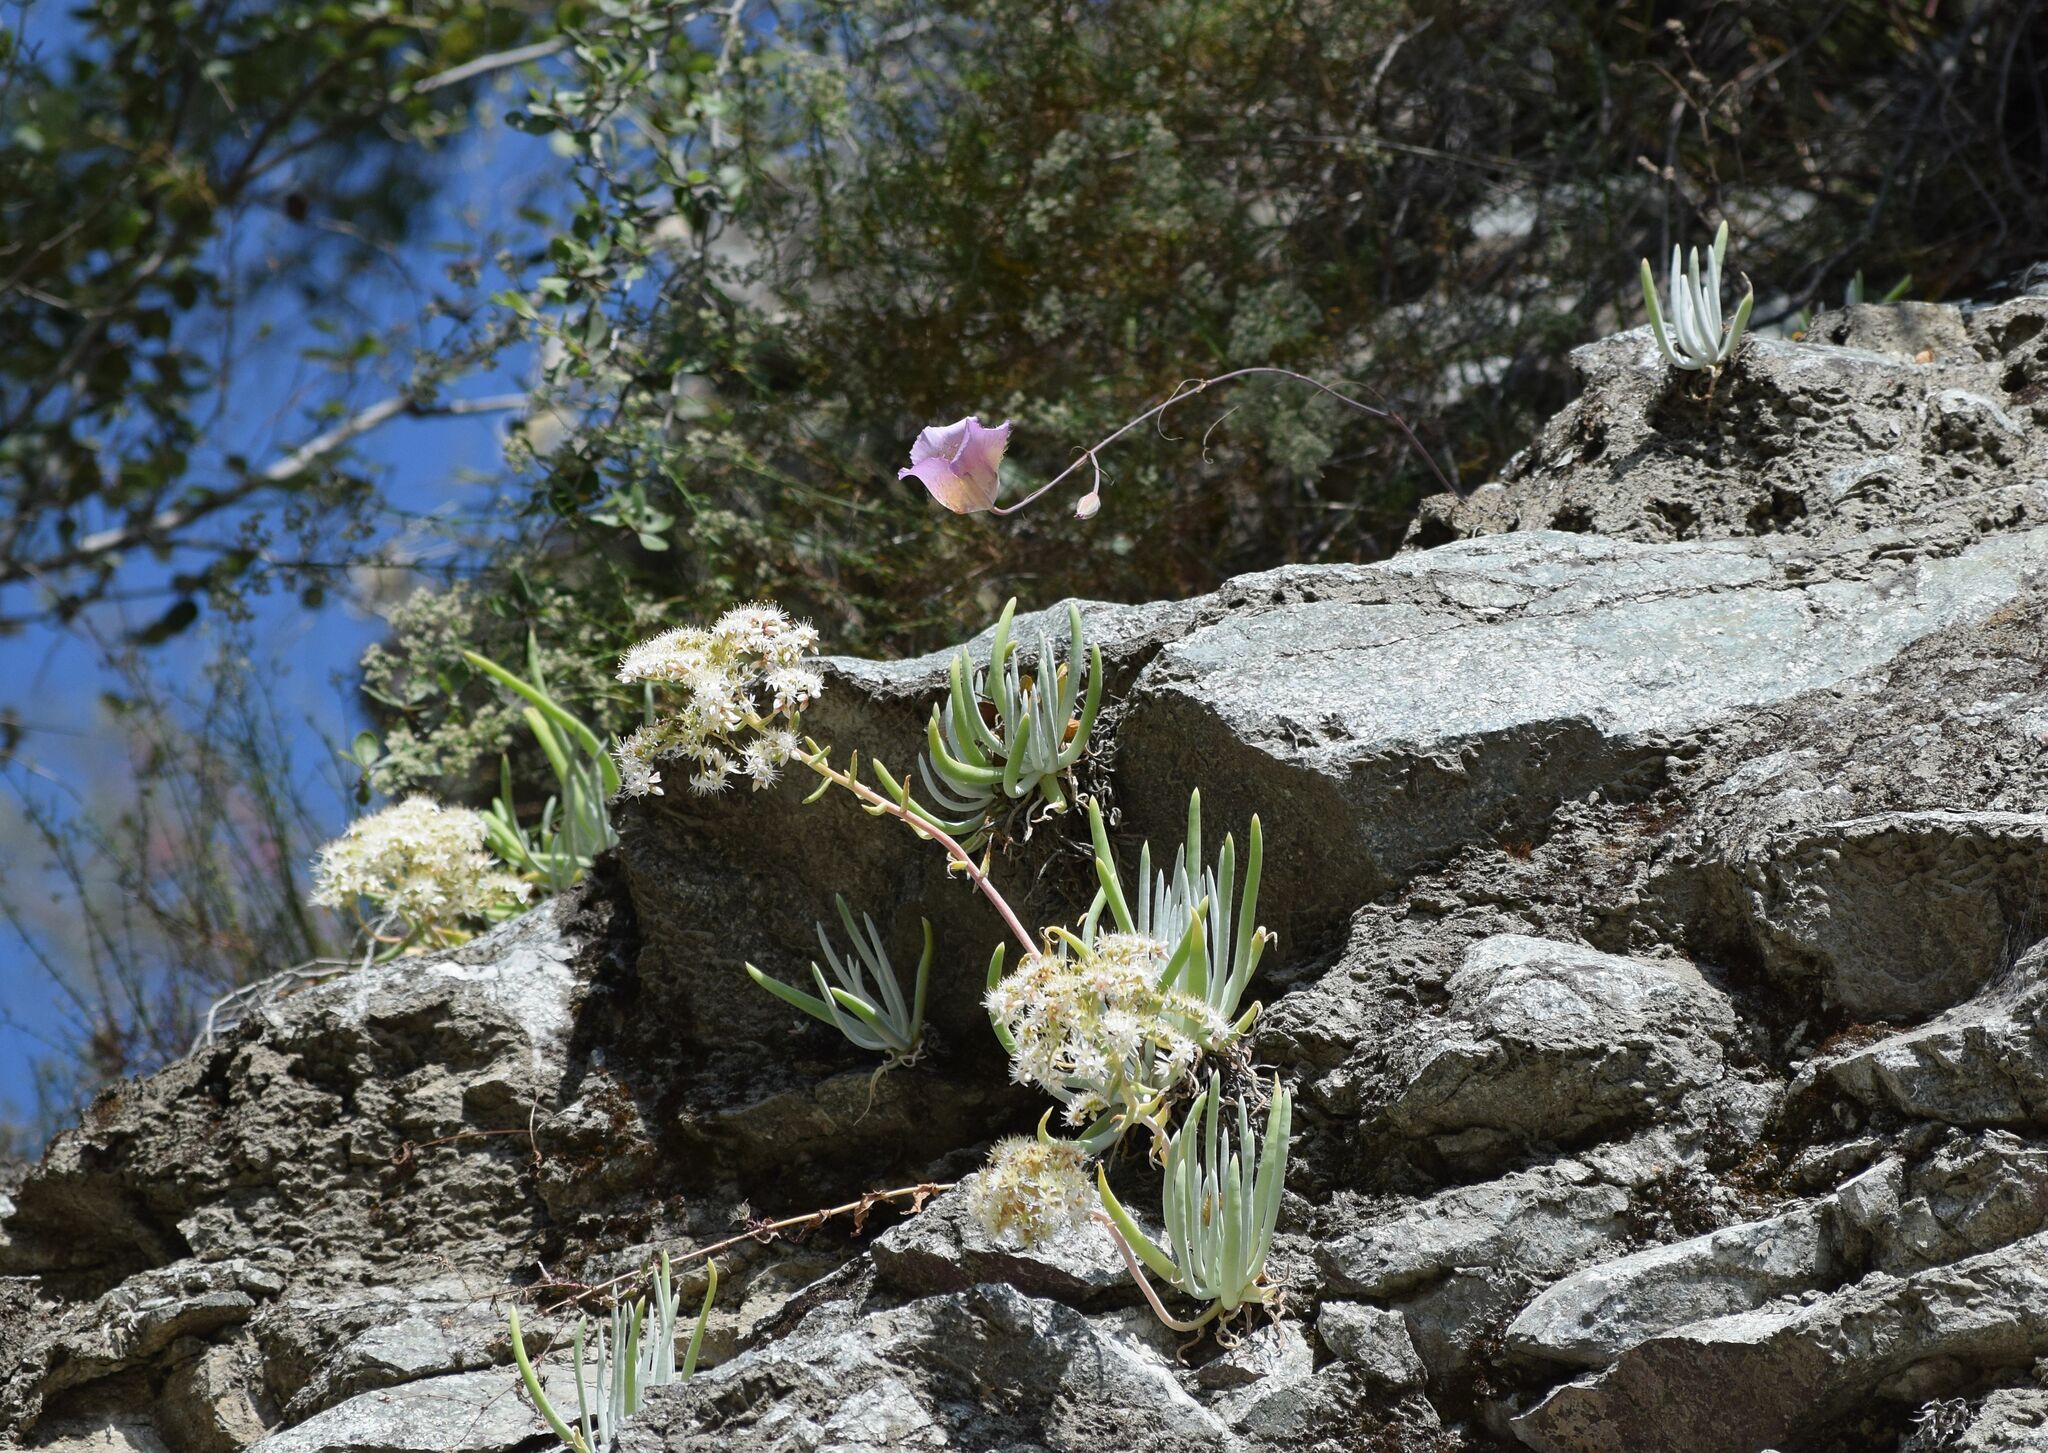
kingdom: Plantae
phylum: Tracheophyta
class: Liliopsida
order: Liliales
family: Liliaceae
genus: Calochortus
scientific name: Calochortus plummerae
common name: Plummer's mariposa-lily
